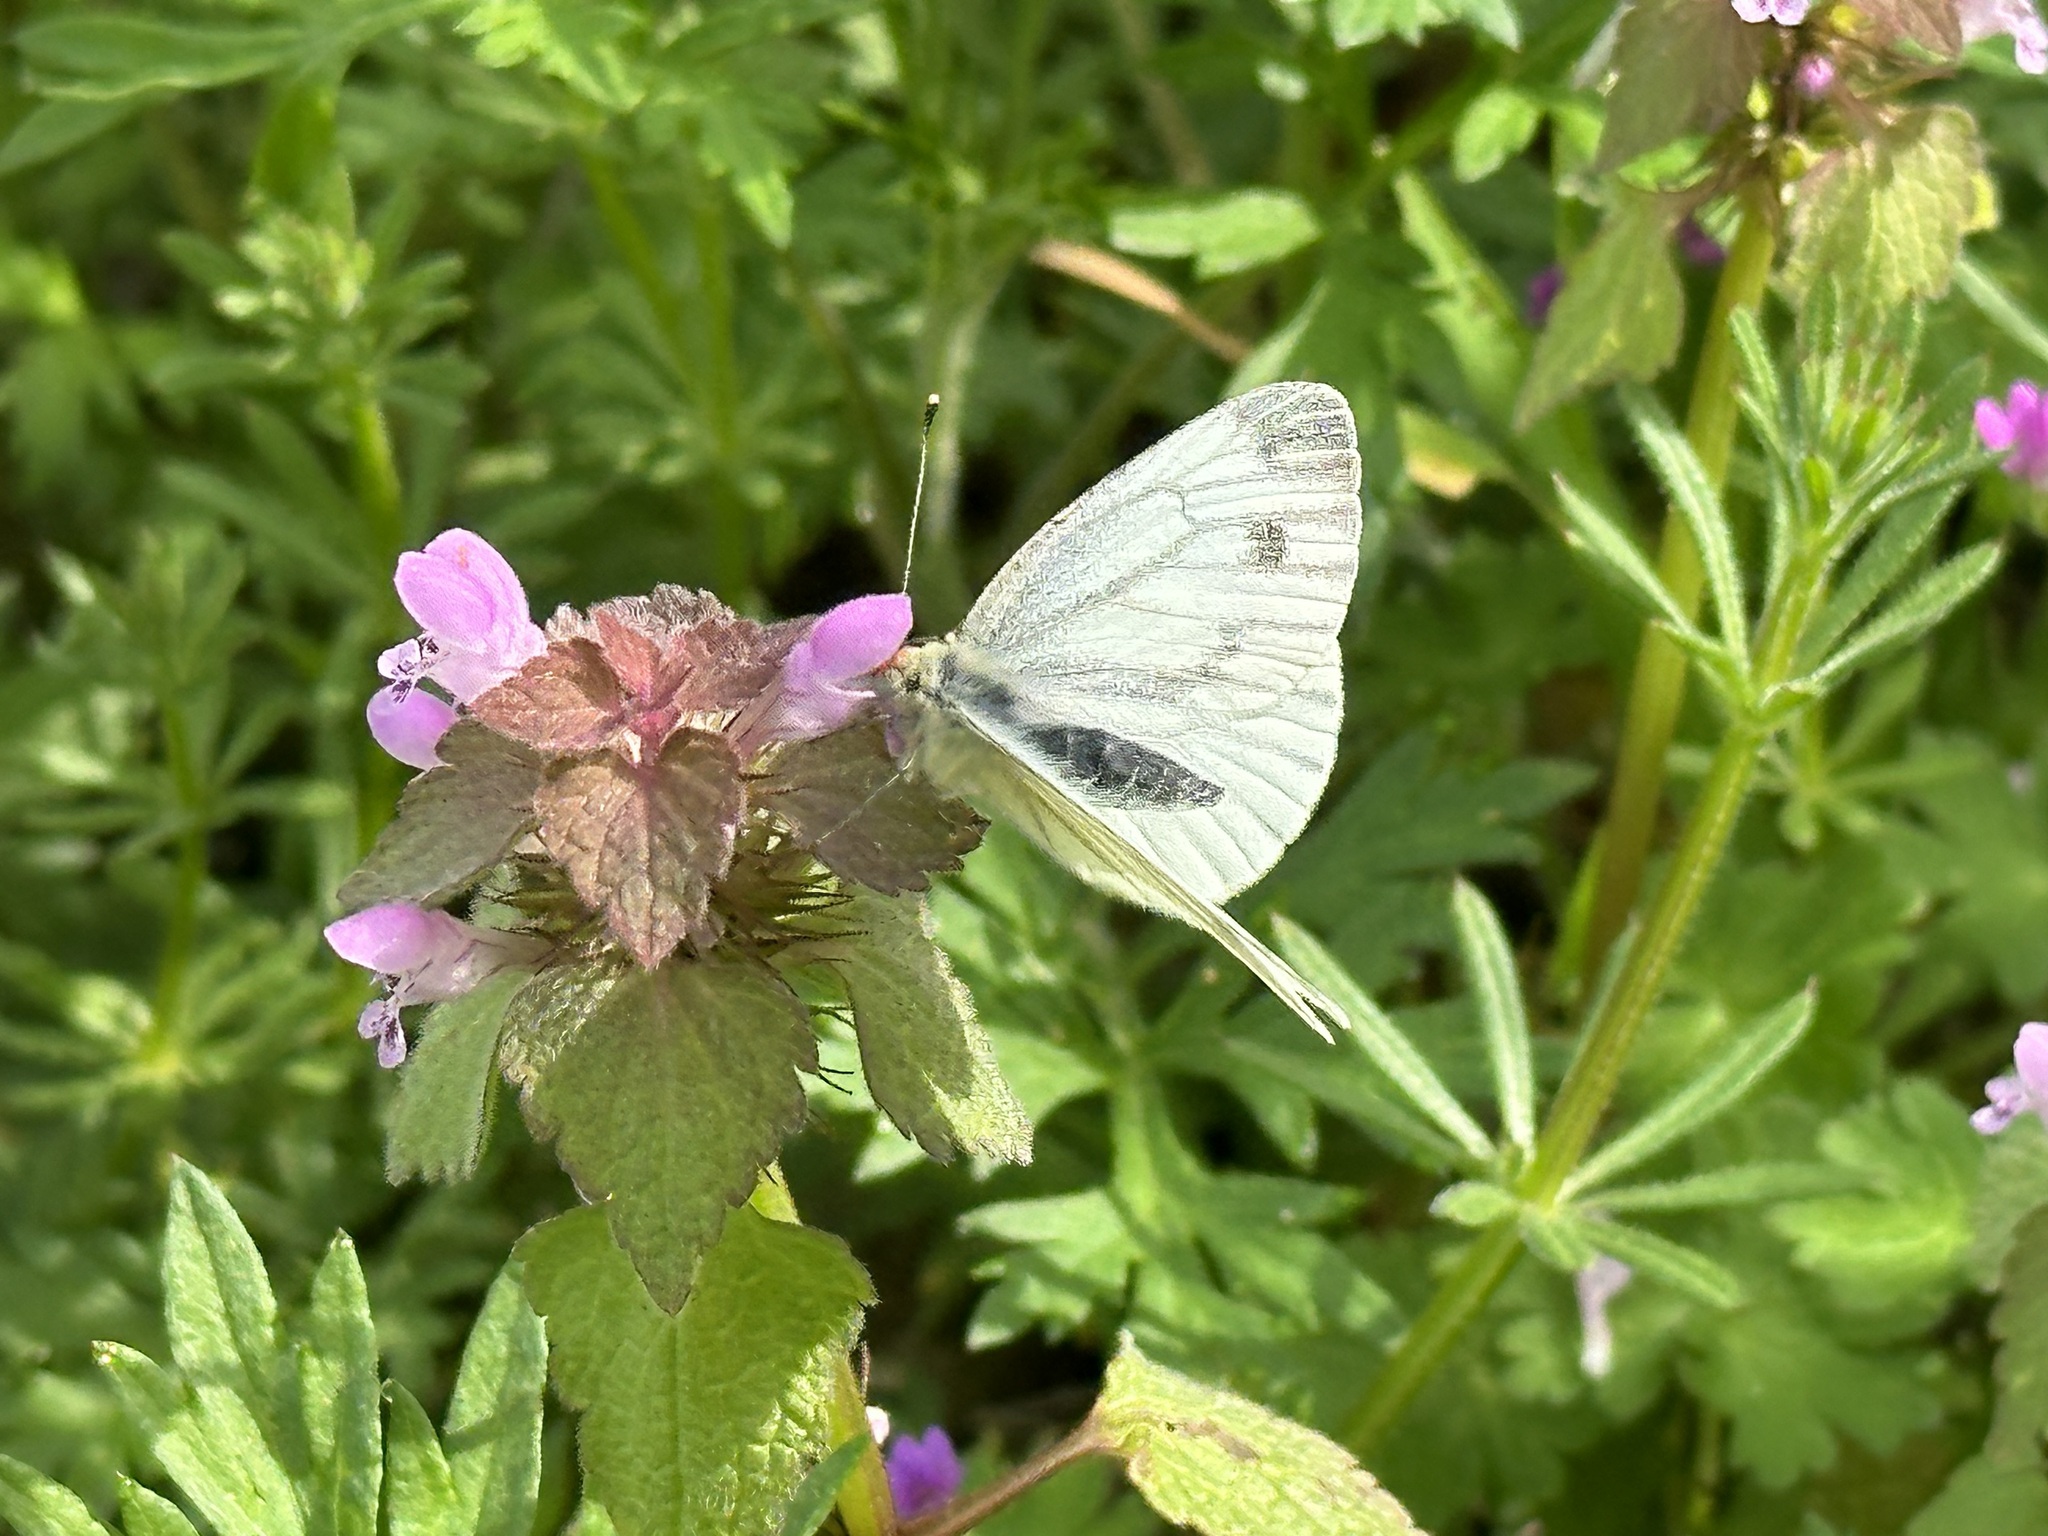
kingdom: Animalia
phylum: Arthropoda
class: Insecta
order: Lepidoptera
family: Pieridae
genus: Pieris
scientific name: Pieris napi
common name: Green-veined white
